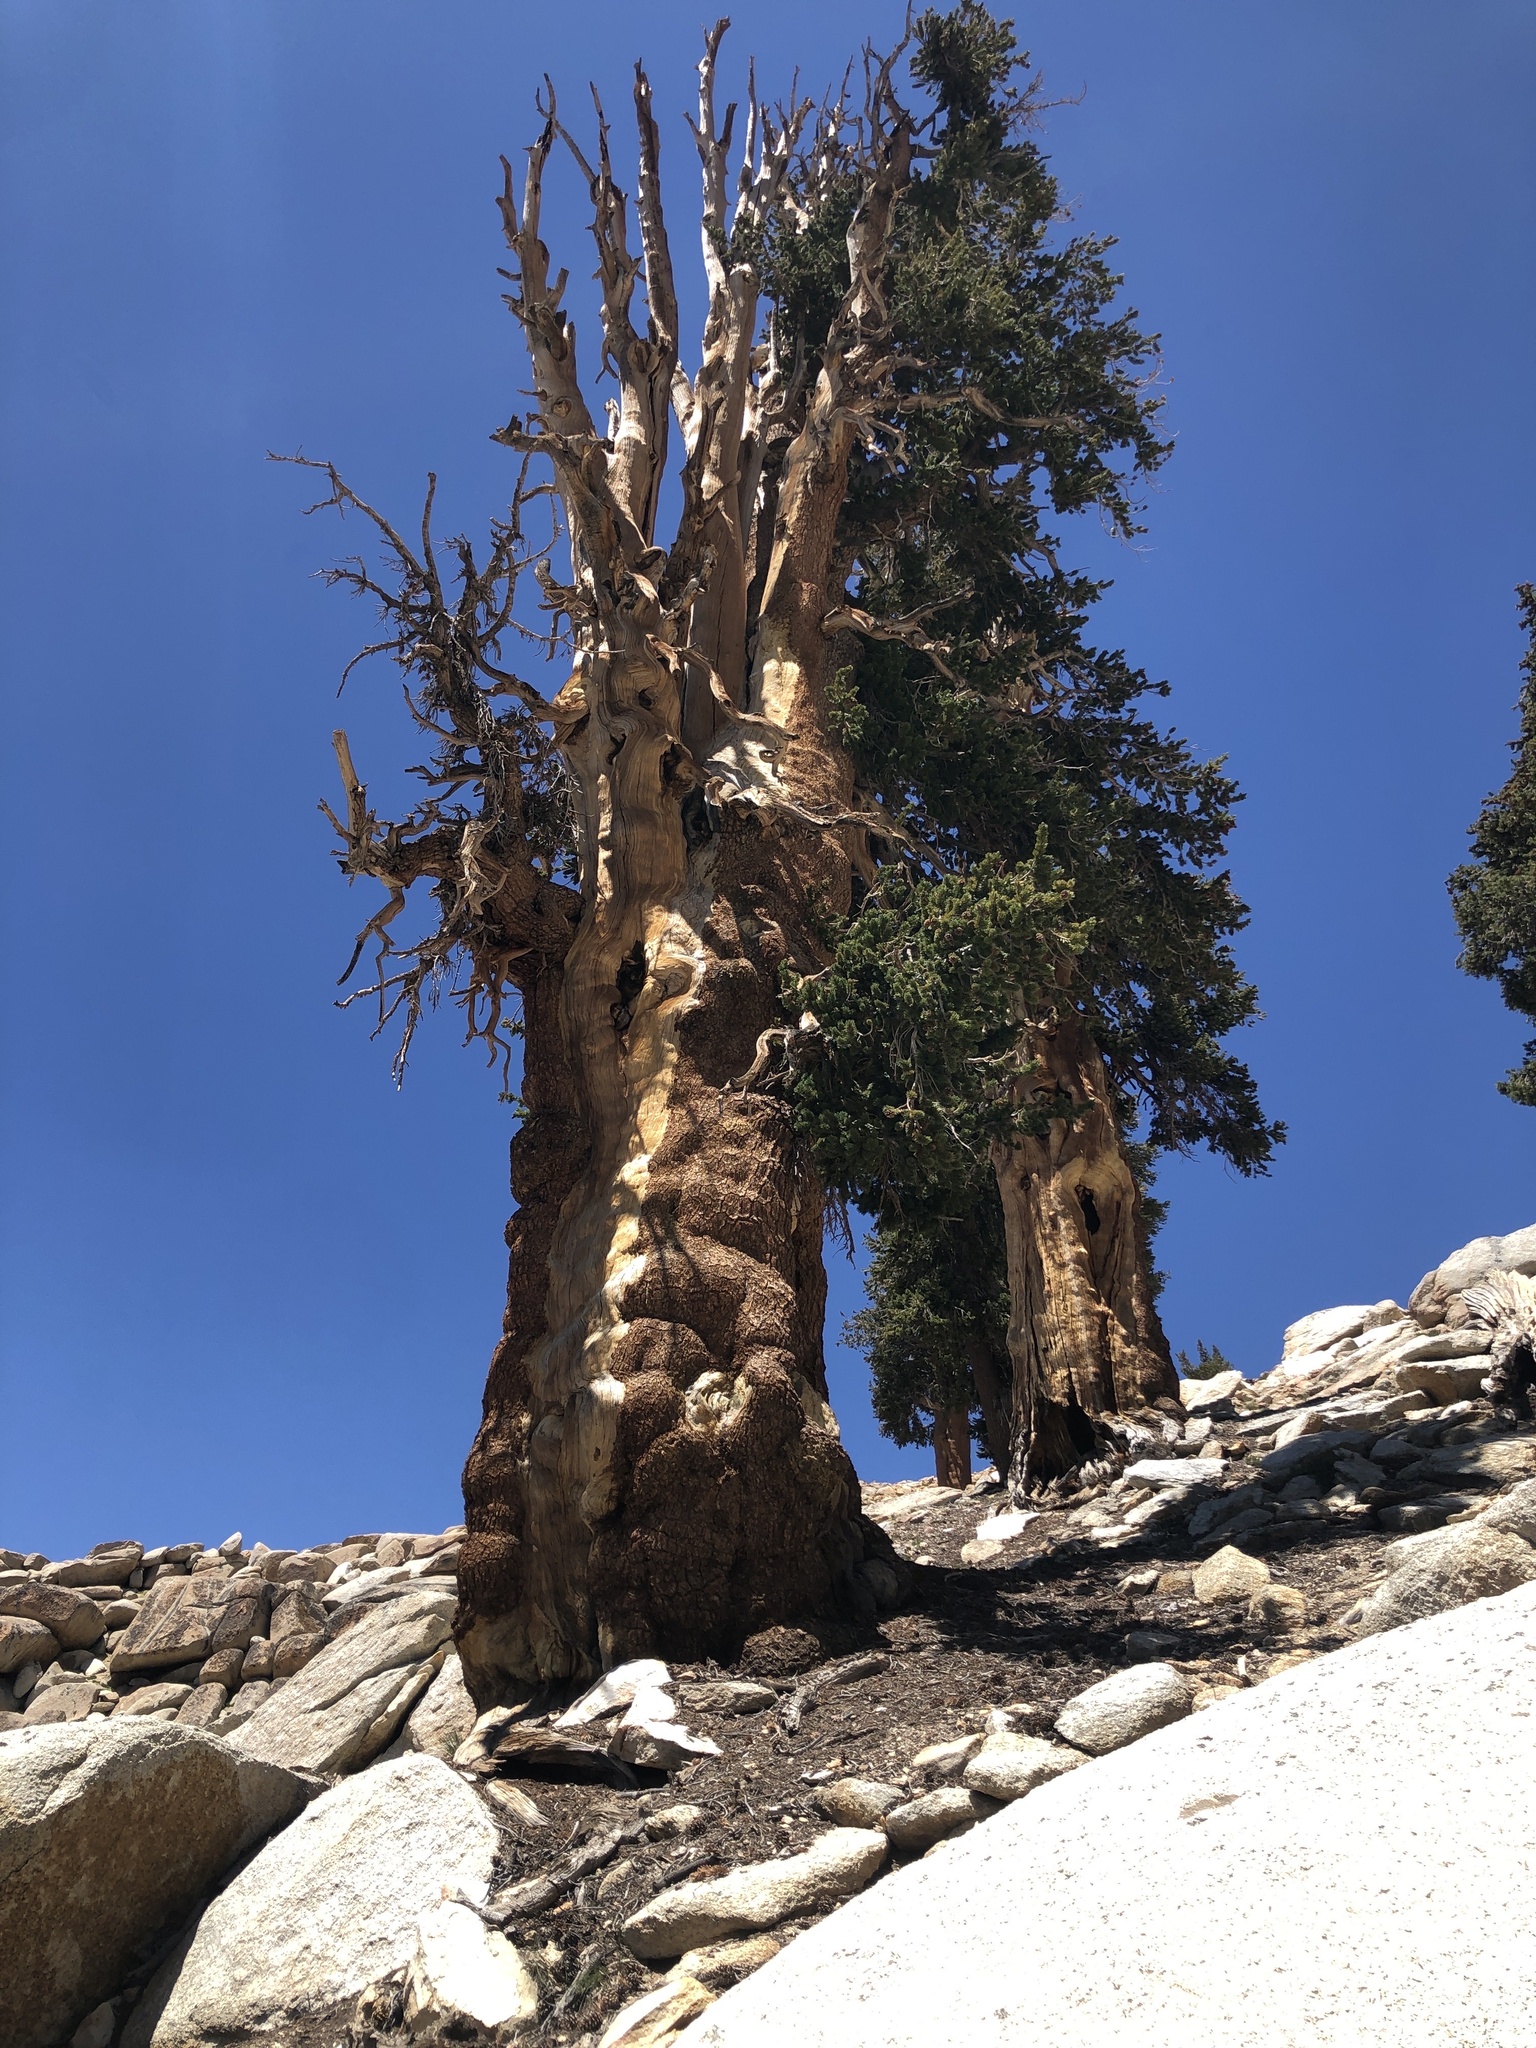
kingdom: Plantae
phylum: Tracheophyta
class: Pinopsida
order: Pinales
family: Pinaceae
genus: Pinus
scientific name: Pinus balfouriana
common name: Foxtail pine
